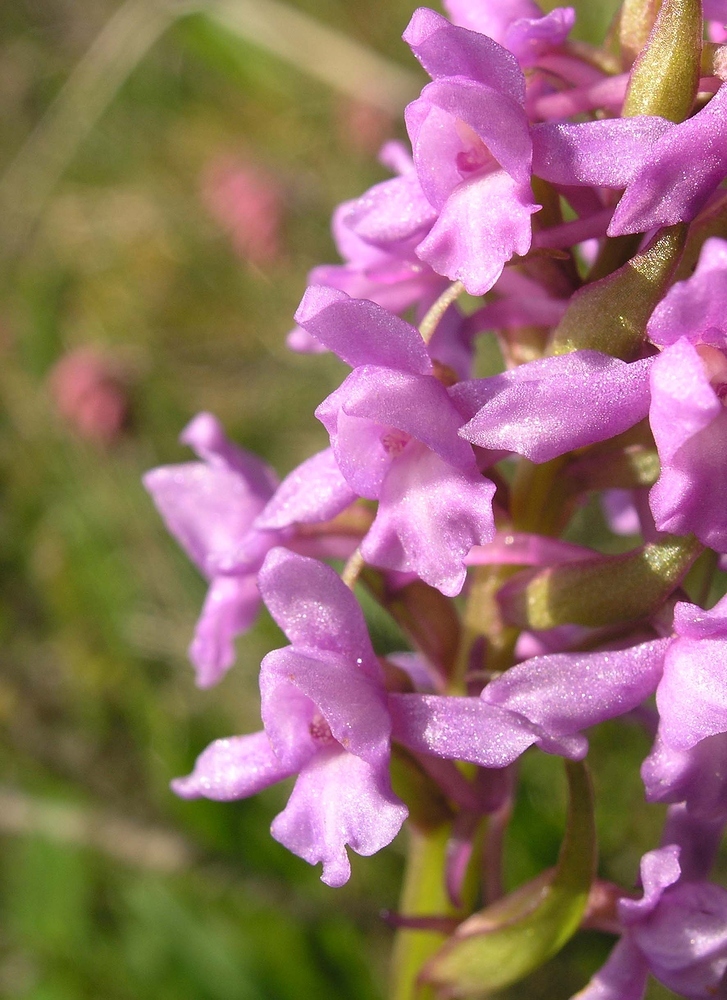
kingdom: Plantae
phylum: Tracheophyta
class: Liliopsida
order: Asparagales
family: Orchidaceae
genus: Gymnadenia
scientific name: Gymnadenia borealis
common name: Heath fragrant orchid
